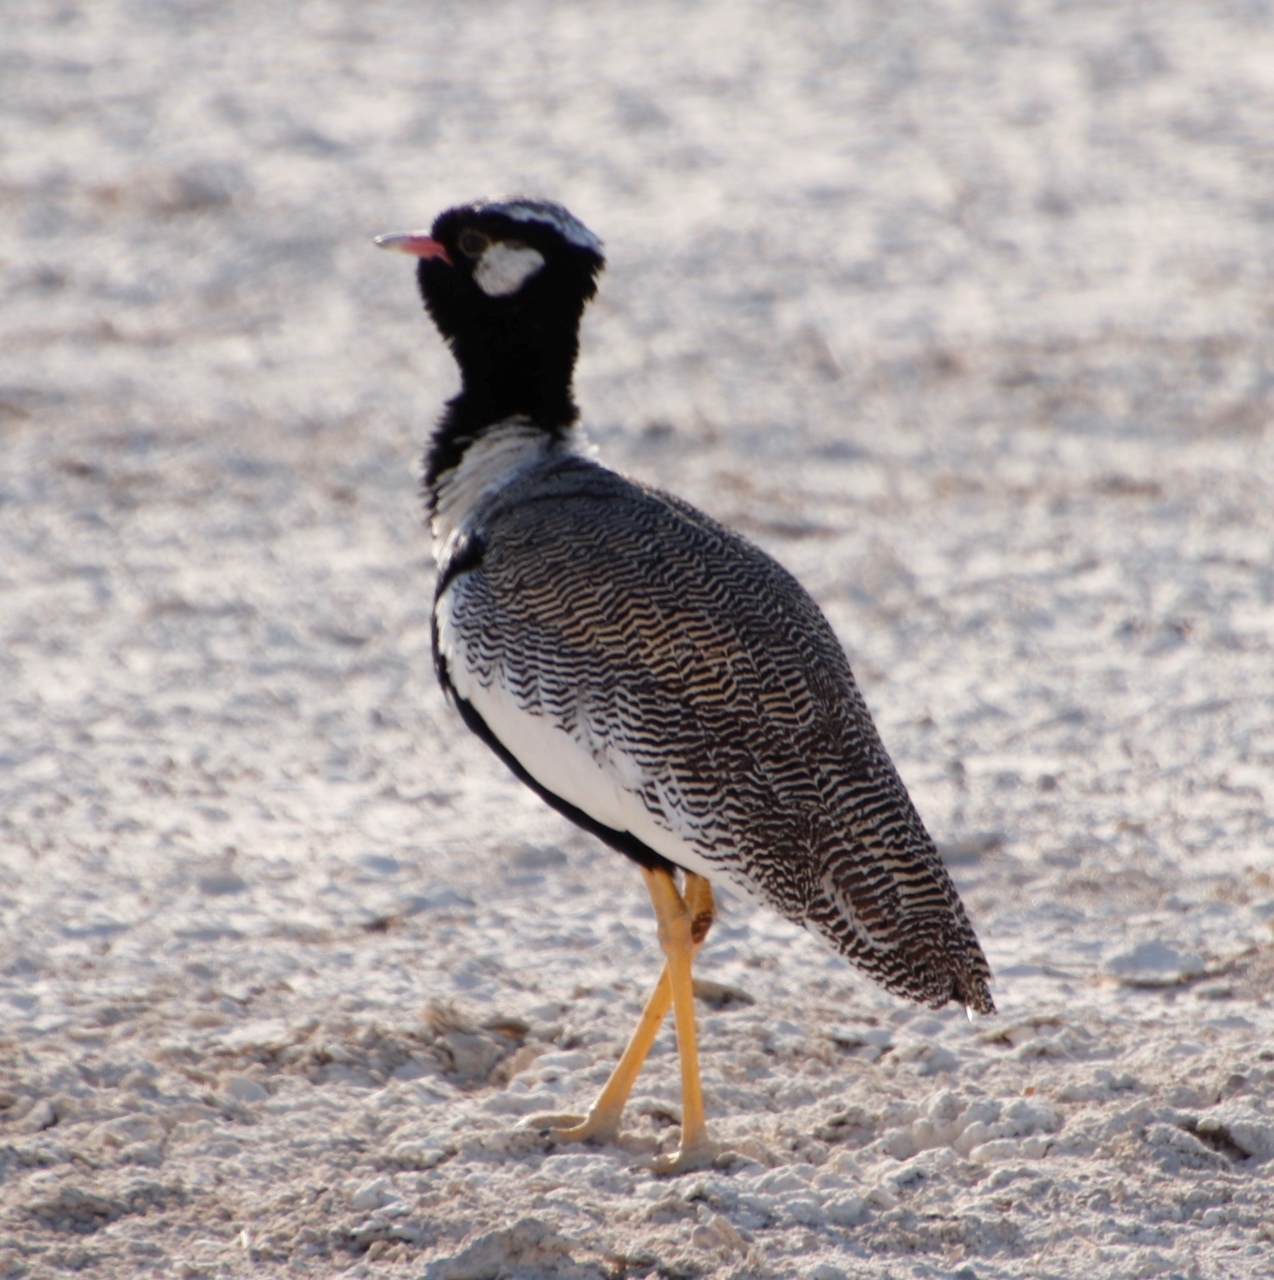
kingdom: Animalia
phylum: Chordata
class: Aves
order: Otidiformes
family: Otididae
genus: Afrotis
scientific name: Afrotis afraoides
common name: Northern black korhaan
